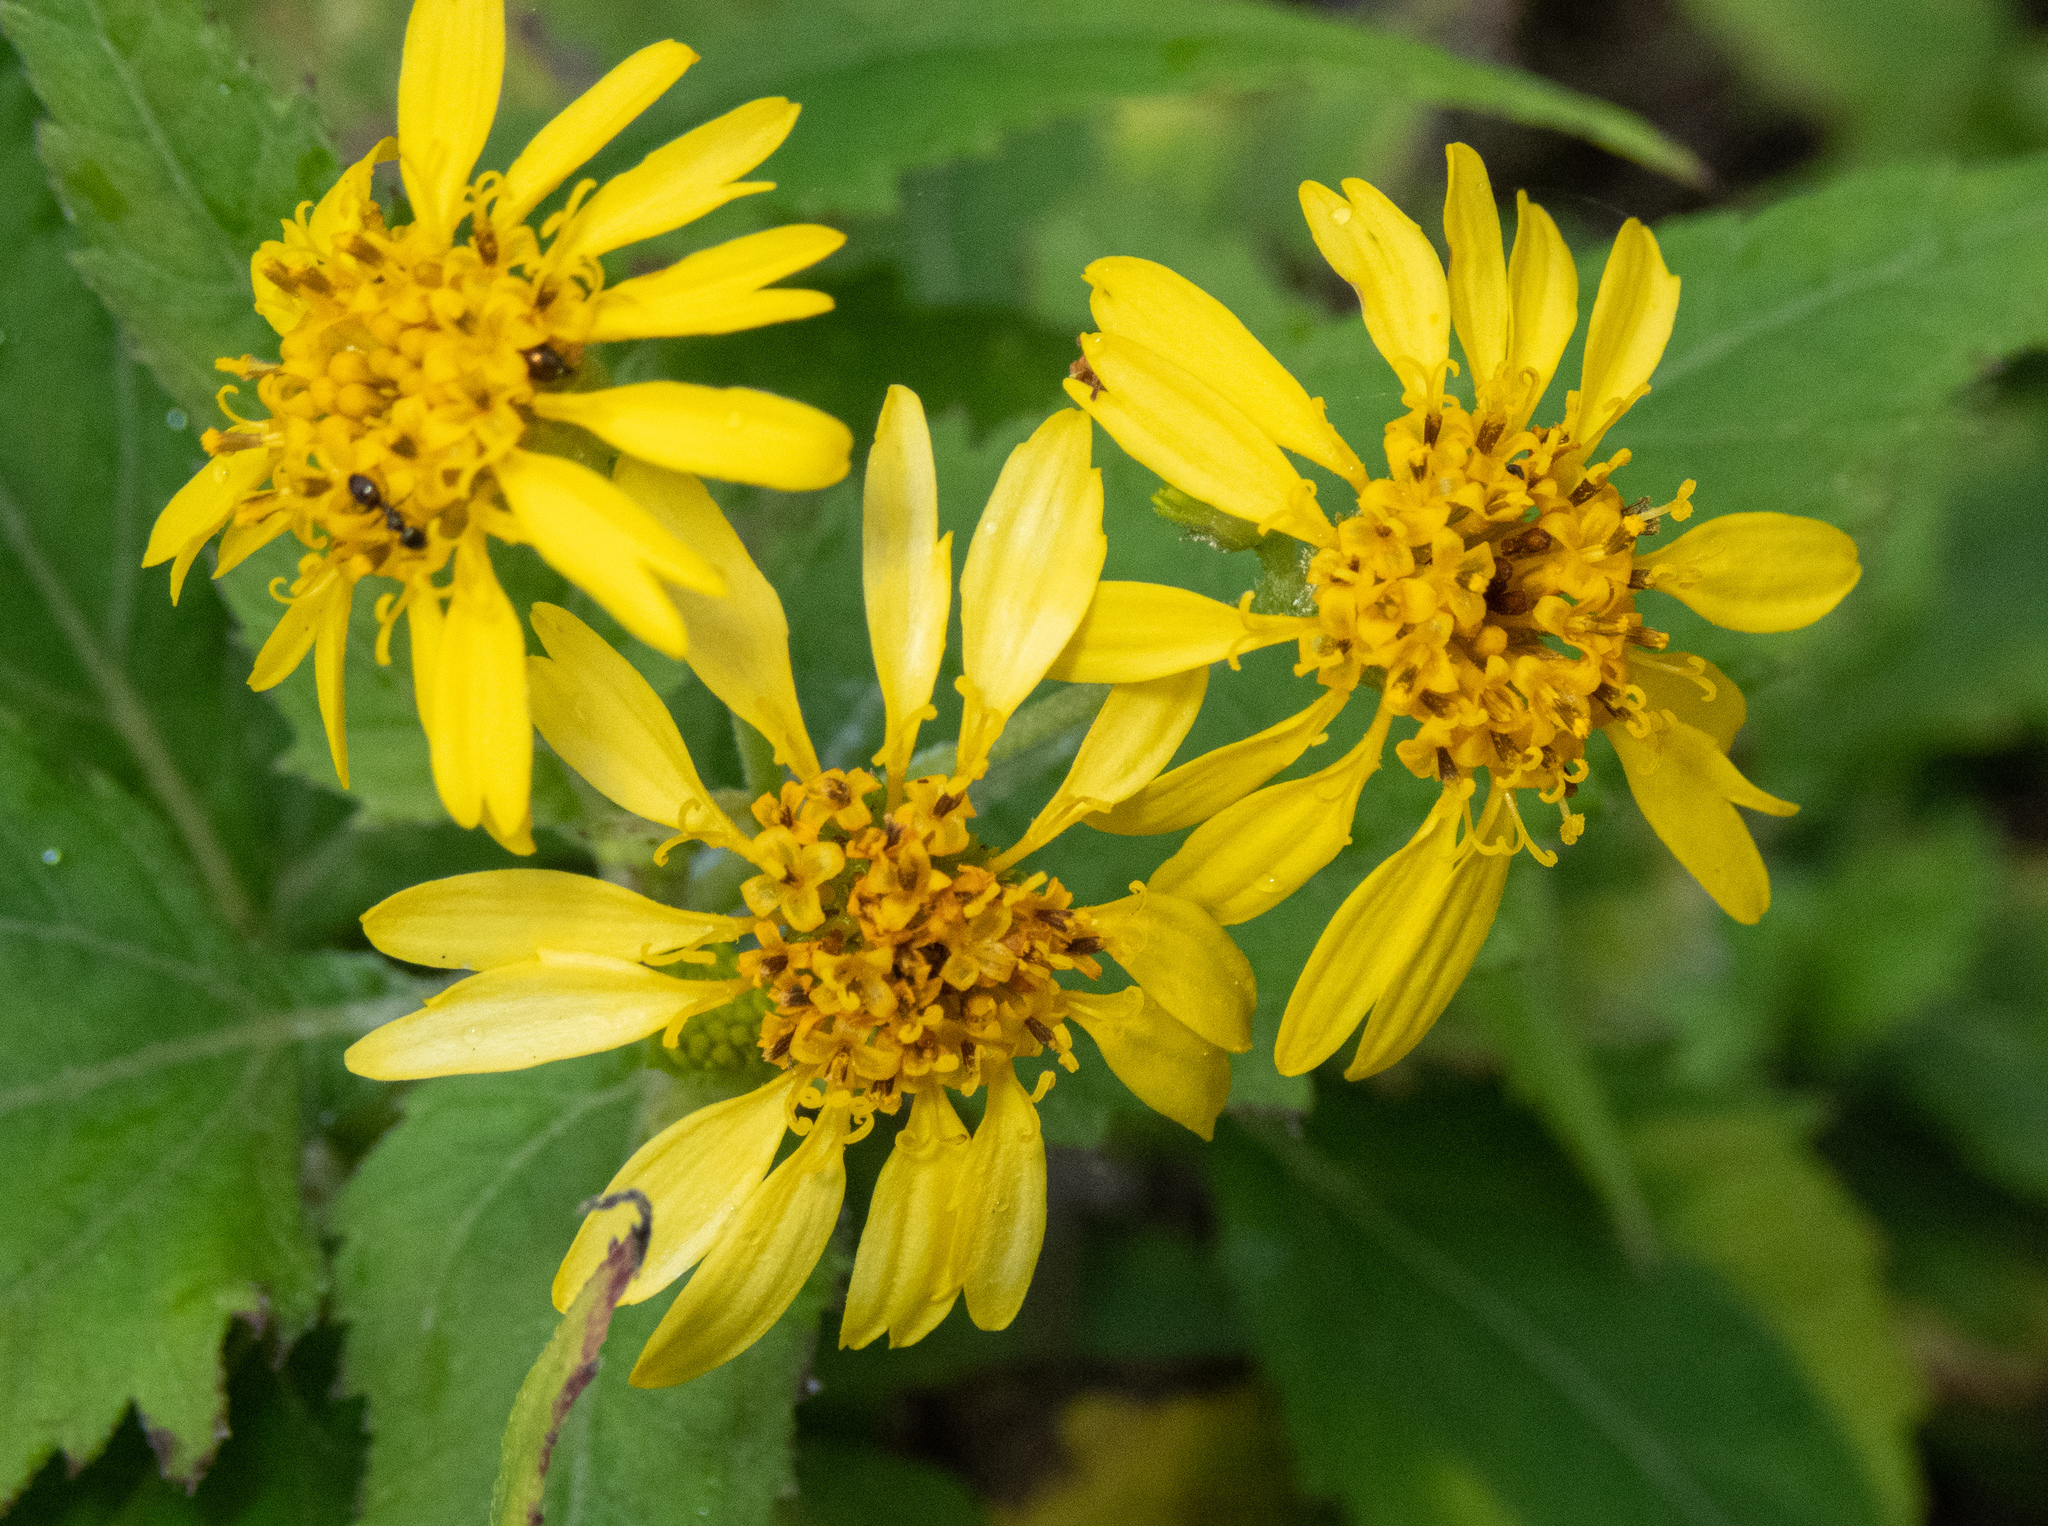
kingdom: Plantae
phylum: Tracheophyta
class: Magnoliopsida
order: Asterales
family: Asteraceae
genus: Verbesina
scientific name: Verbesina encelioides
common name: Golden crownbeard
